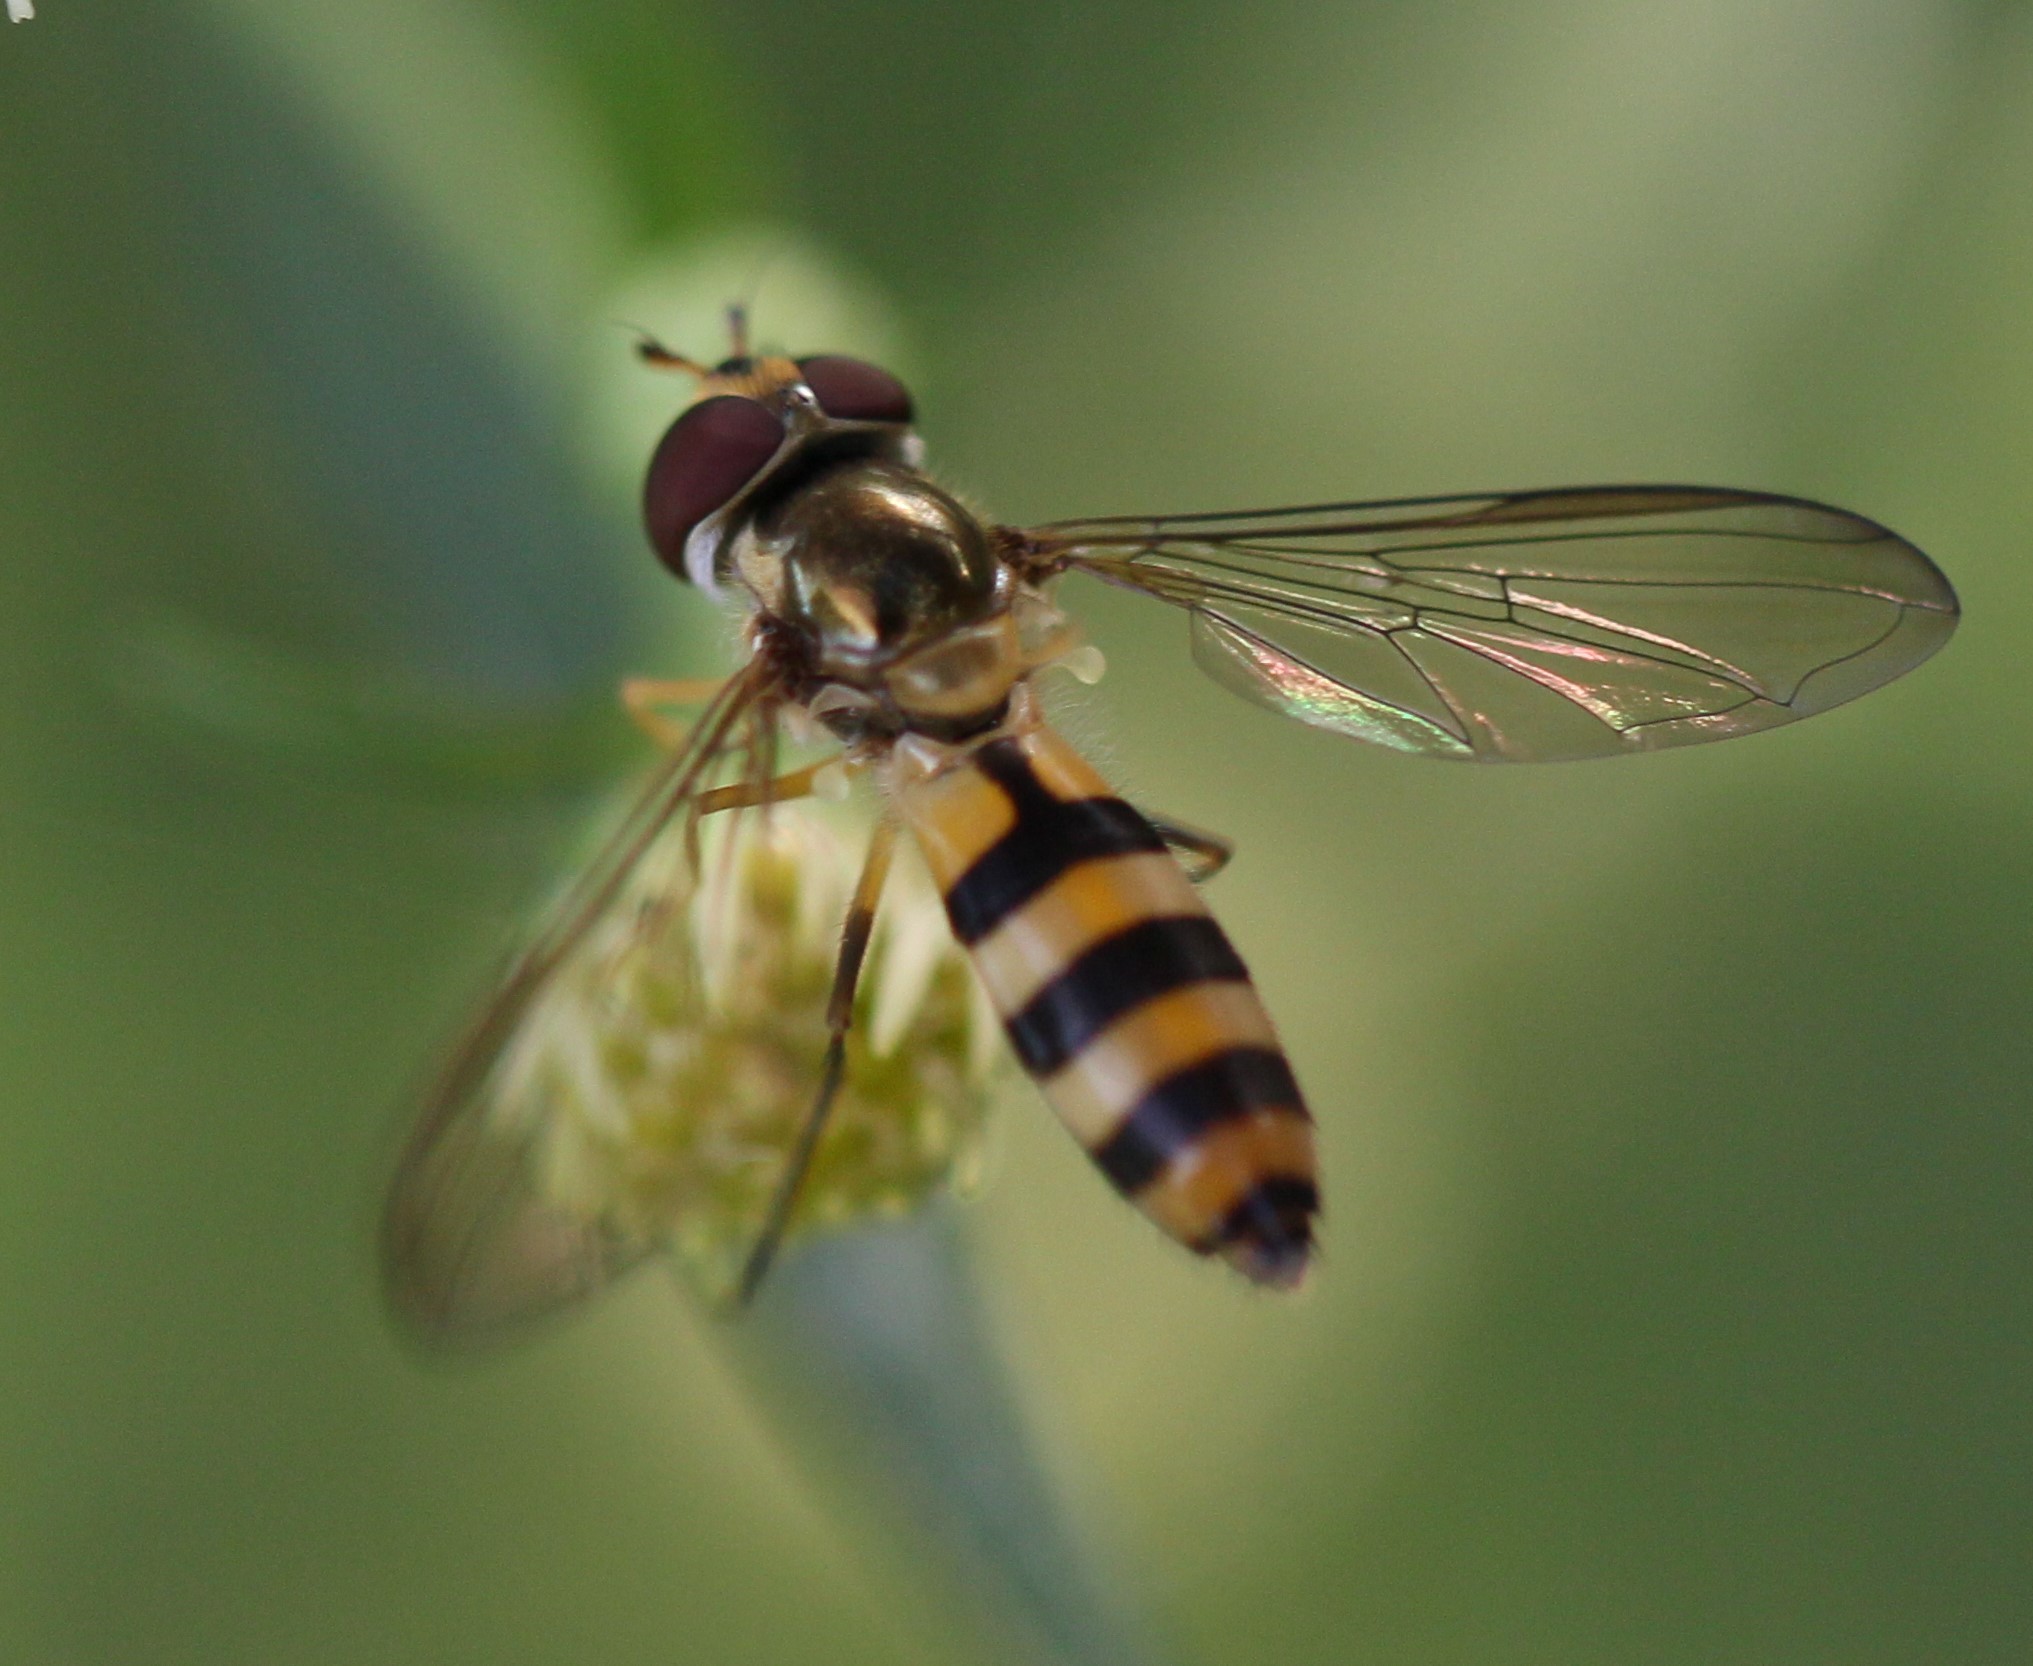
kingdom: Animalia
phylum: Arthropoda
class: Insecta
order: Diptera
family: Syrphidae
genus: Meliscaeva
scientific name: Meliscaeva cinctella
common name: American thintail fly
